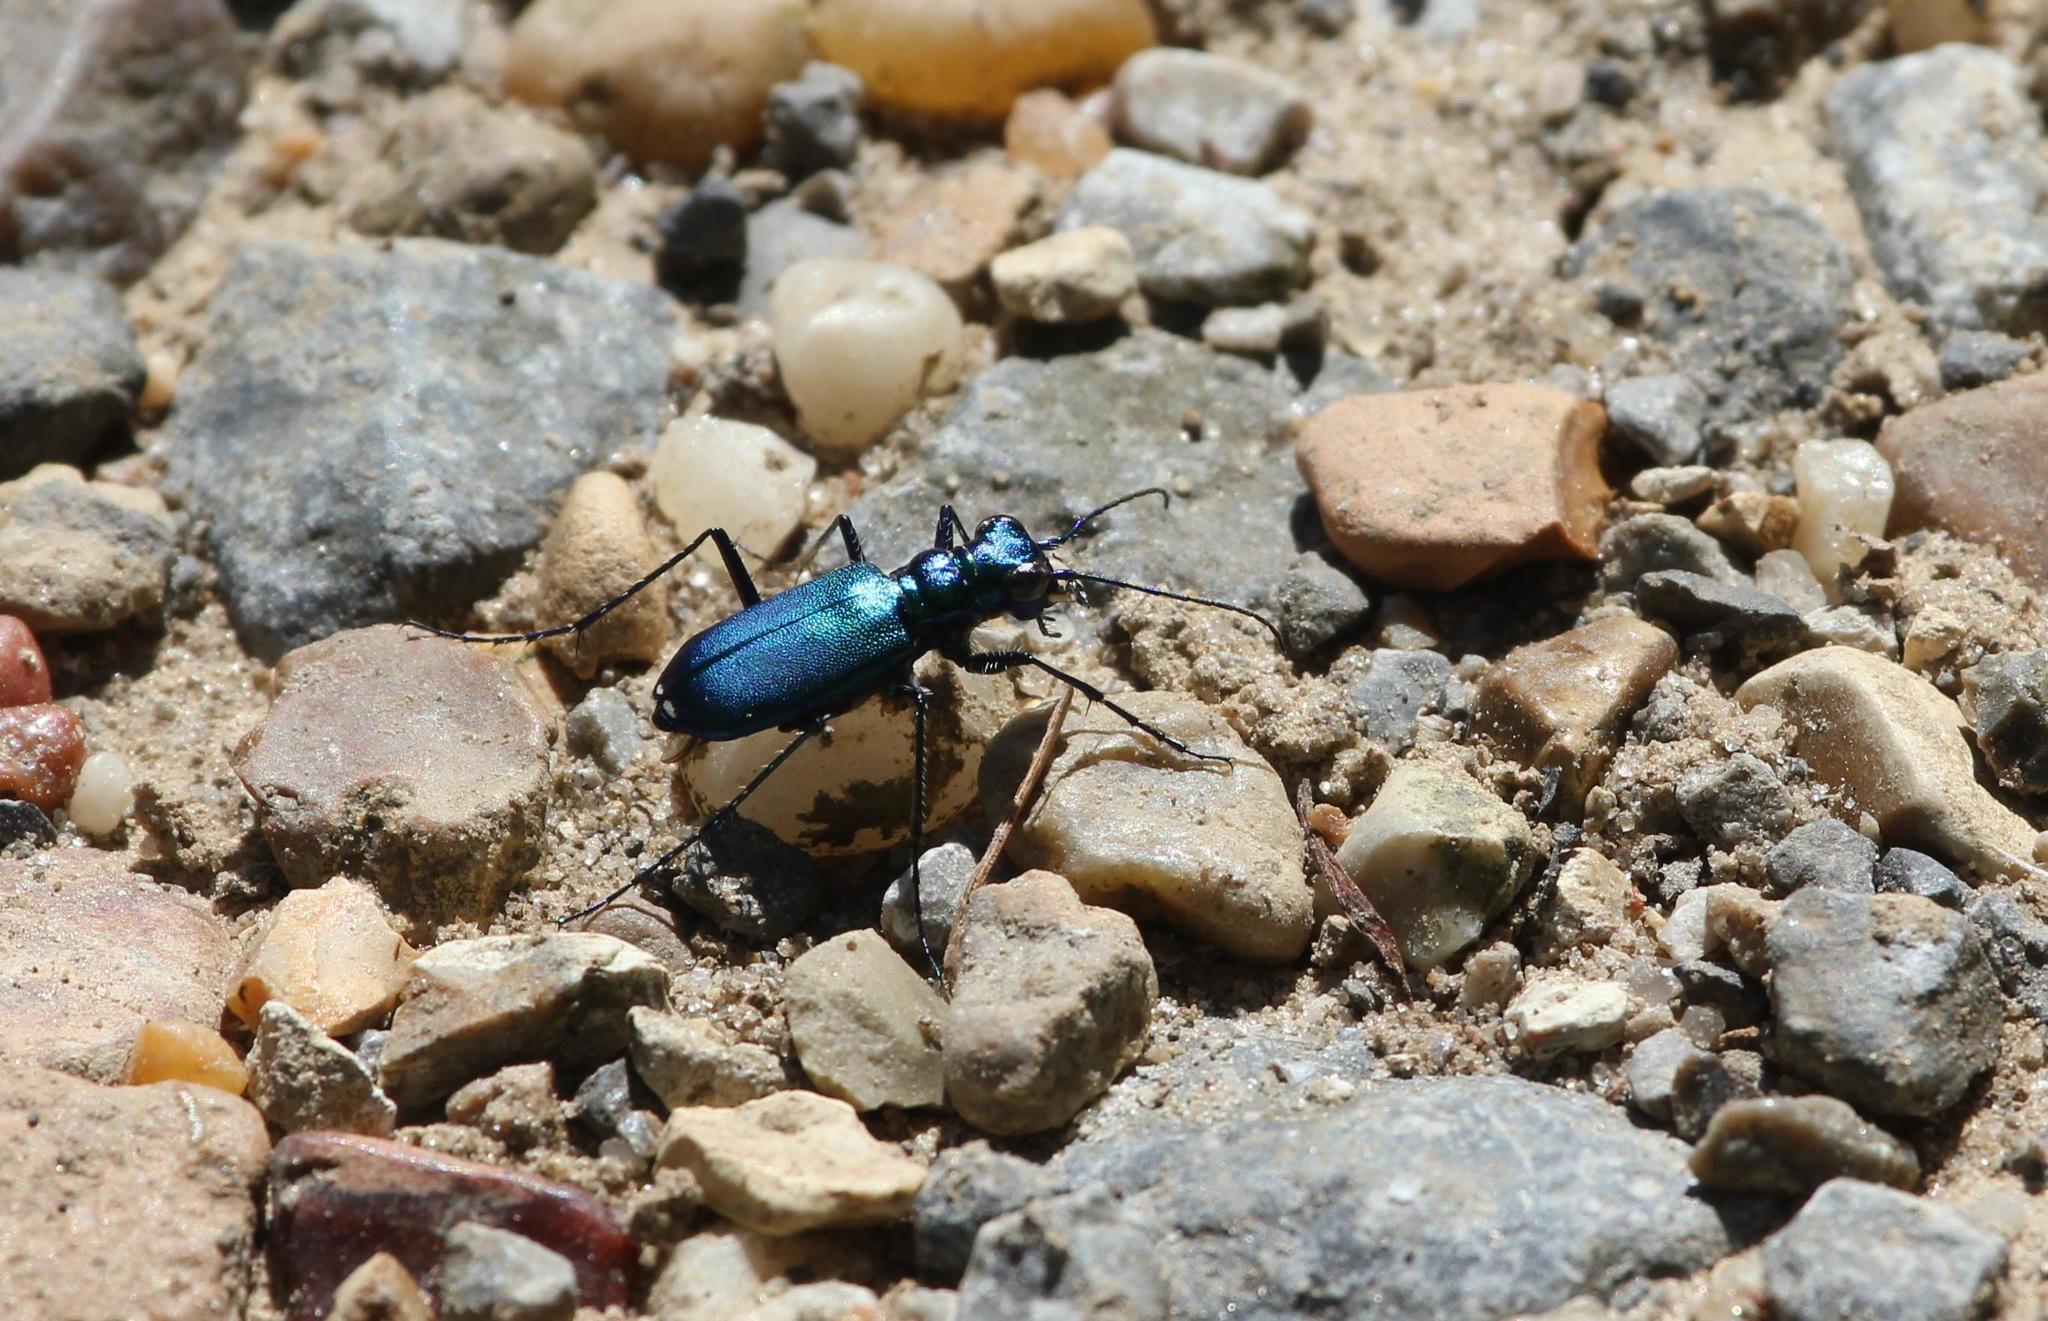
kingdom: Animalia
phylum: Arthropoda
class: Insecta
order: Coleoptera
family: Carabidae
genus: Cicindela
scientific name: Cicindela sexguttata
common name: Six-spotted tiger beetle
